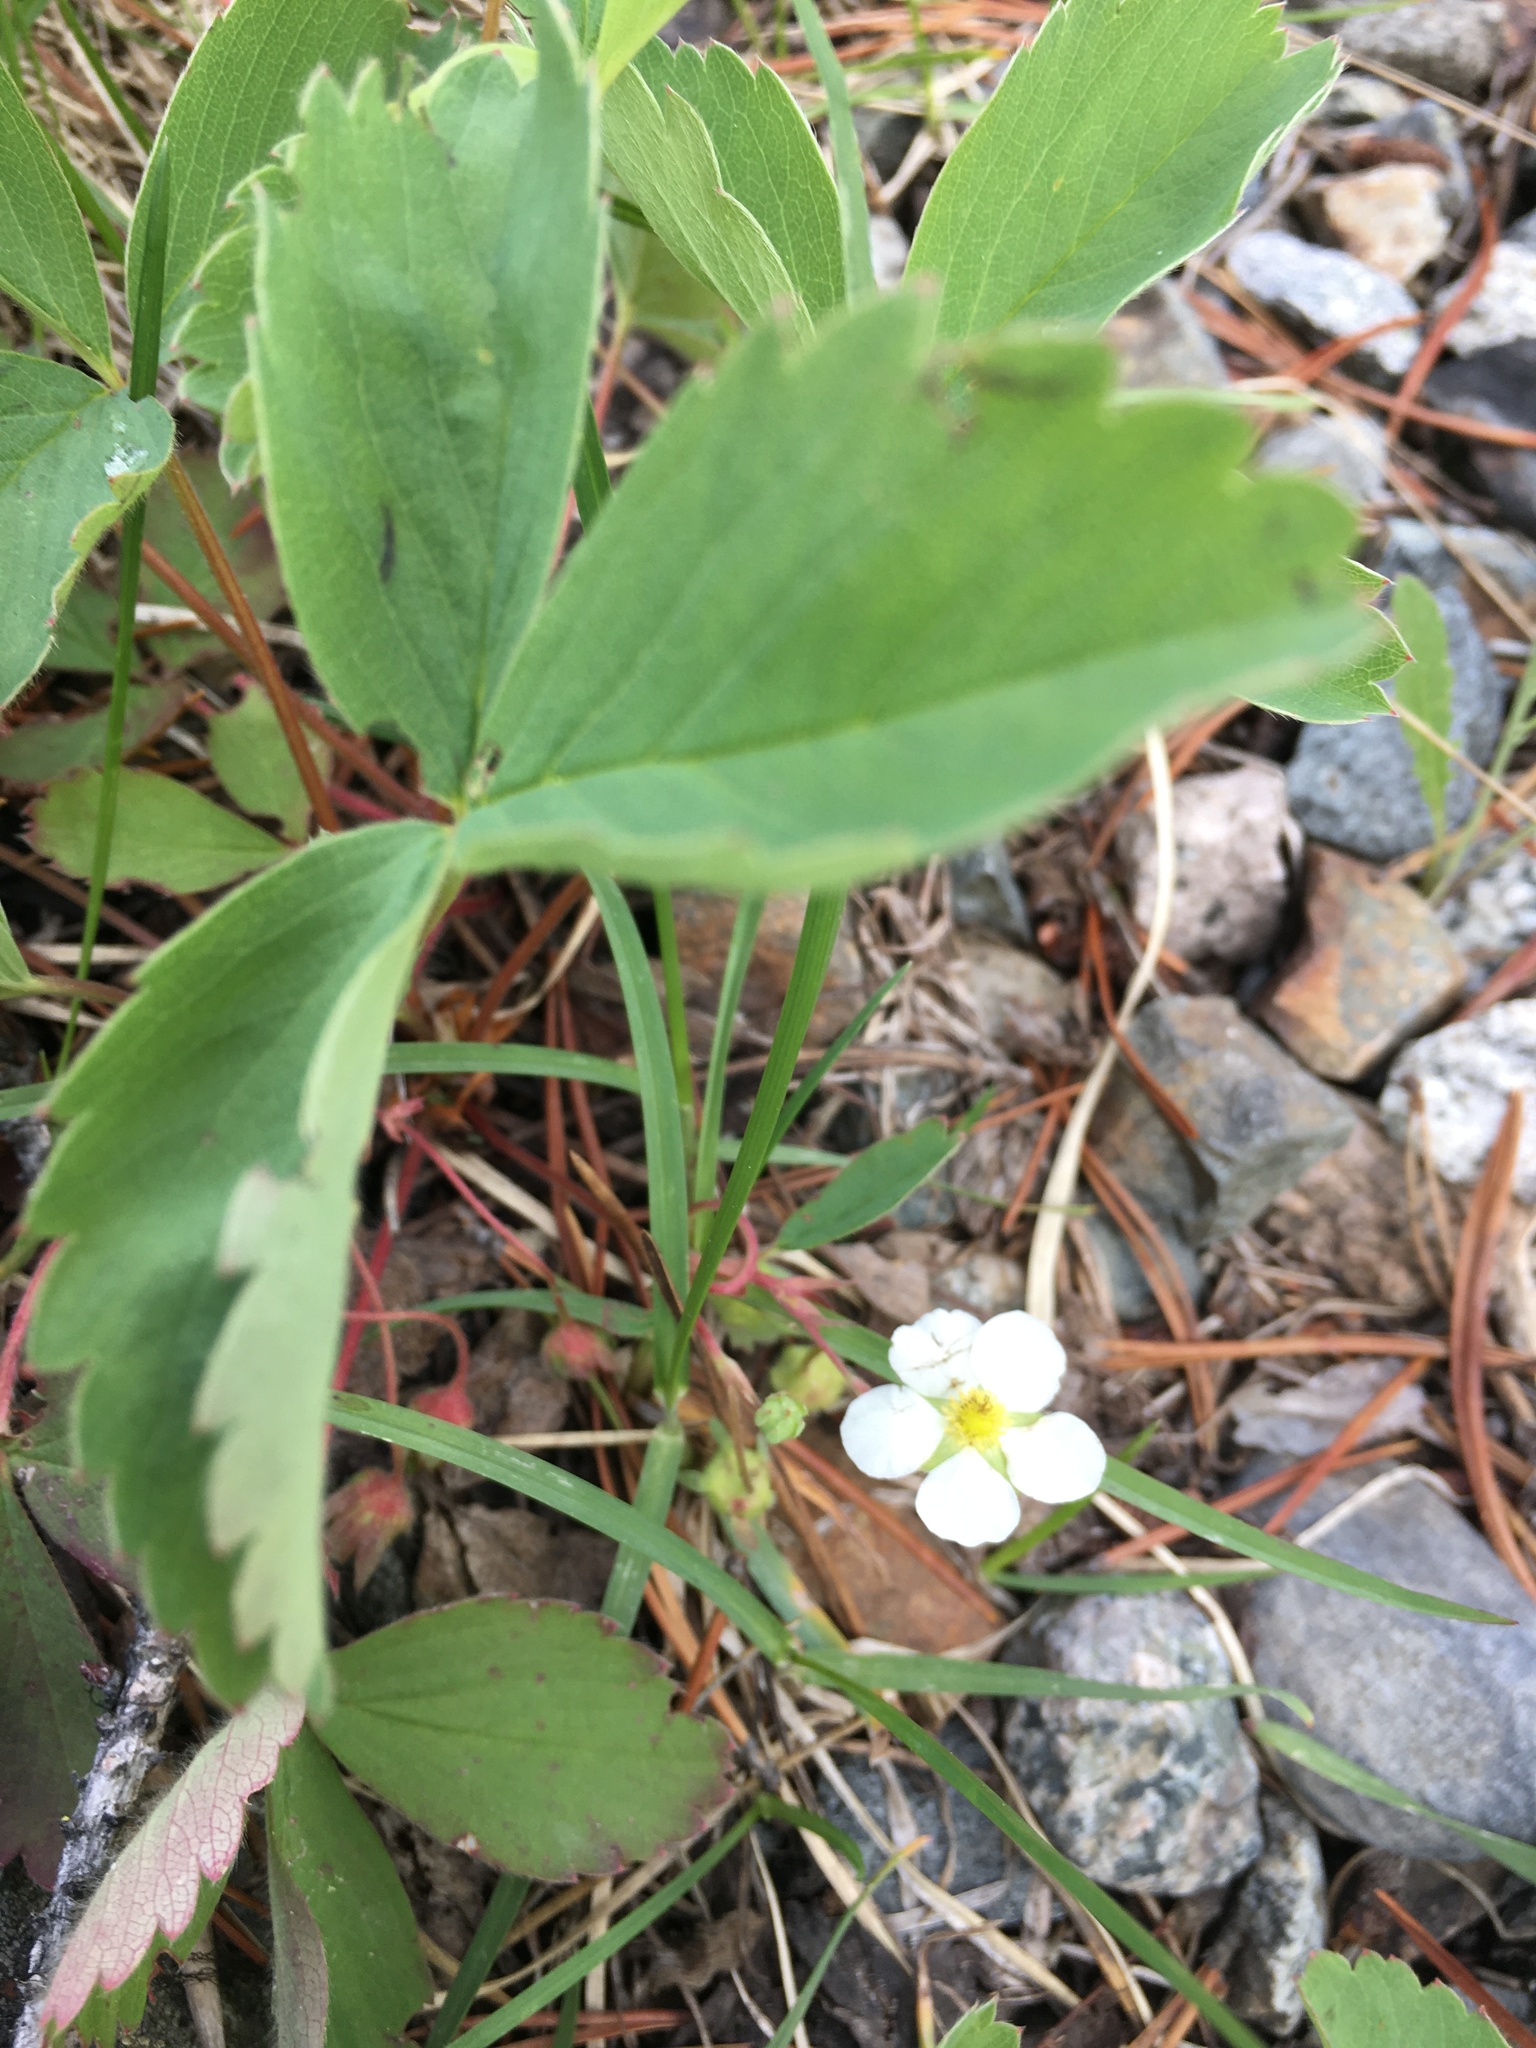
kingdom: Plantae
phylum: Tracheophyta
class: Magnoliopsida
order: Rosales
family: Rosaceae
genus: Fragaria
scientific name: Fragaria virginiana
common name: Thickleaved wild strawberry
